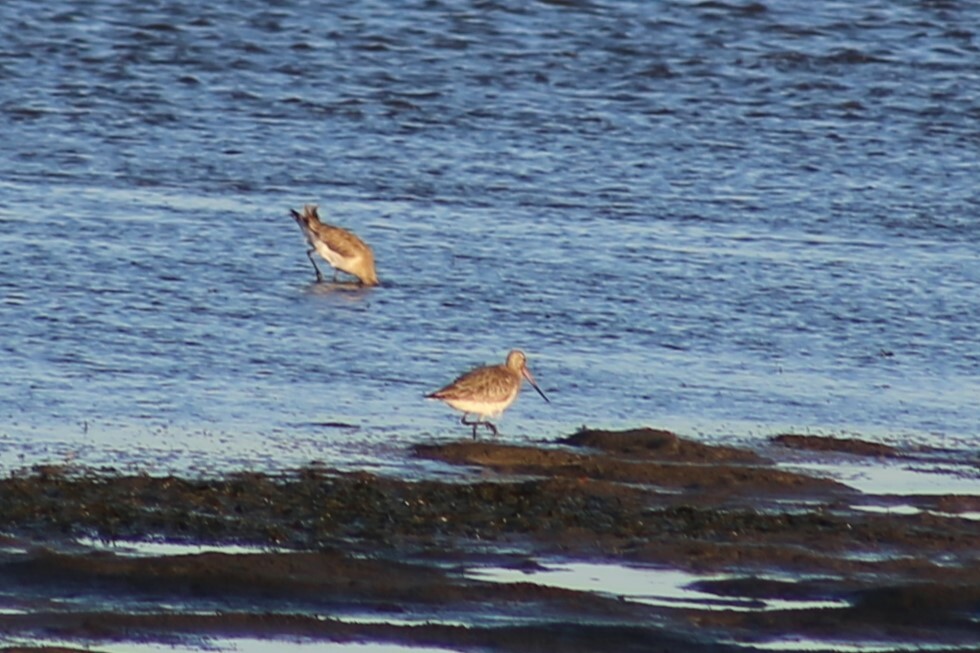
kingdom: Animalia
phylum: Chordata
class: Aves
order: Charadriiformes
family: Scolopacidae
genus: Limosa
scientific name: Limosa lapponica
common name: Bar-tailed godwit
